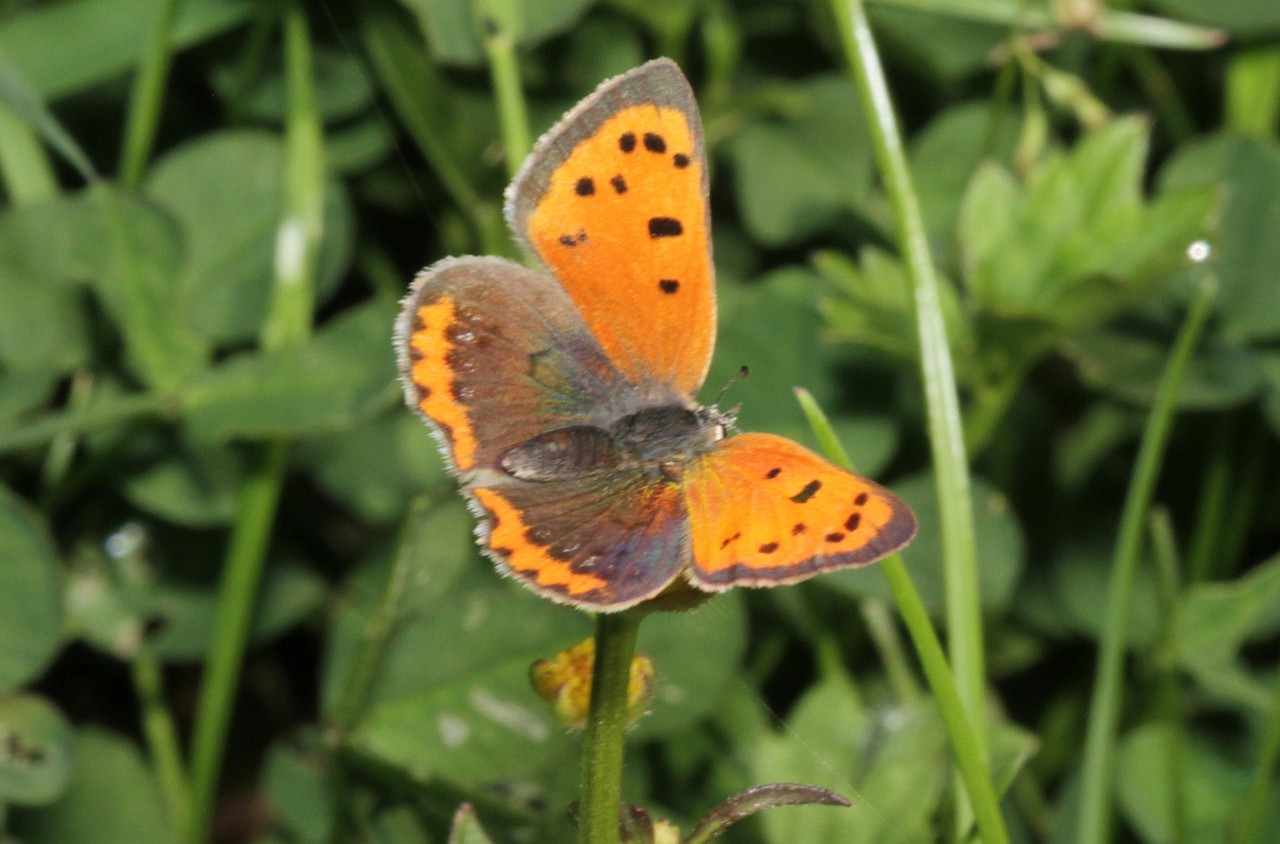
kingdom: Animalia
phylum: Arthropoda
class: Insecta
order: Lepidoptera
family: Lycaenidae
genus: Lycaena
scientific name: Lycaena phlaeas
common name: Small copper
